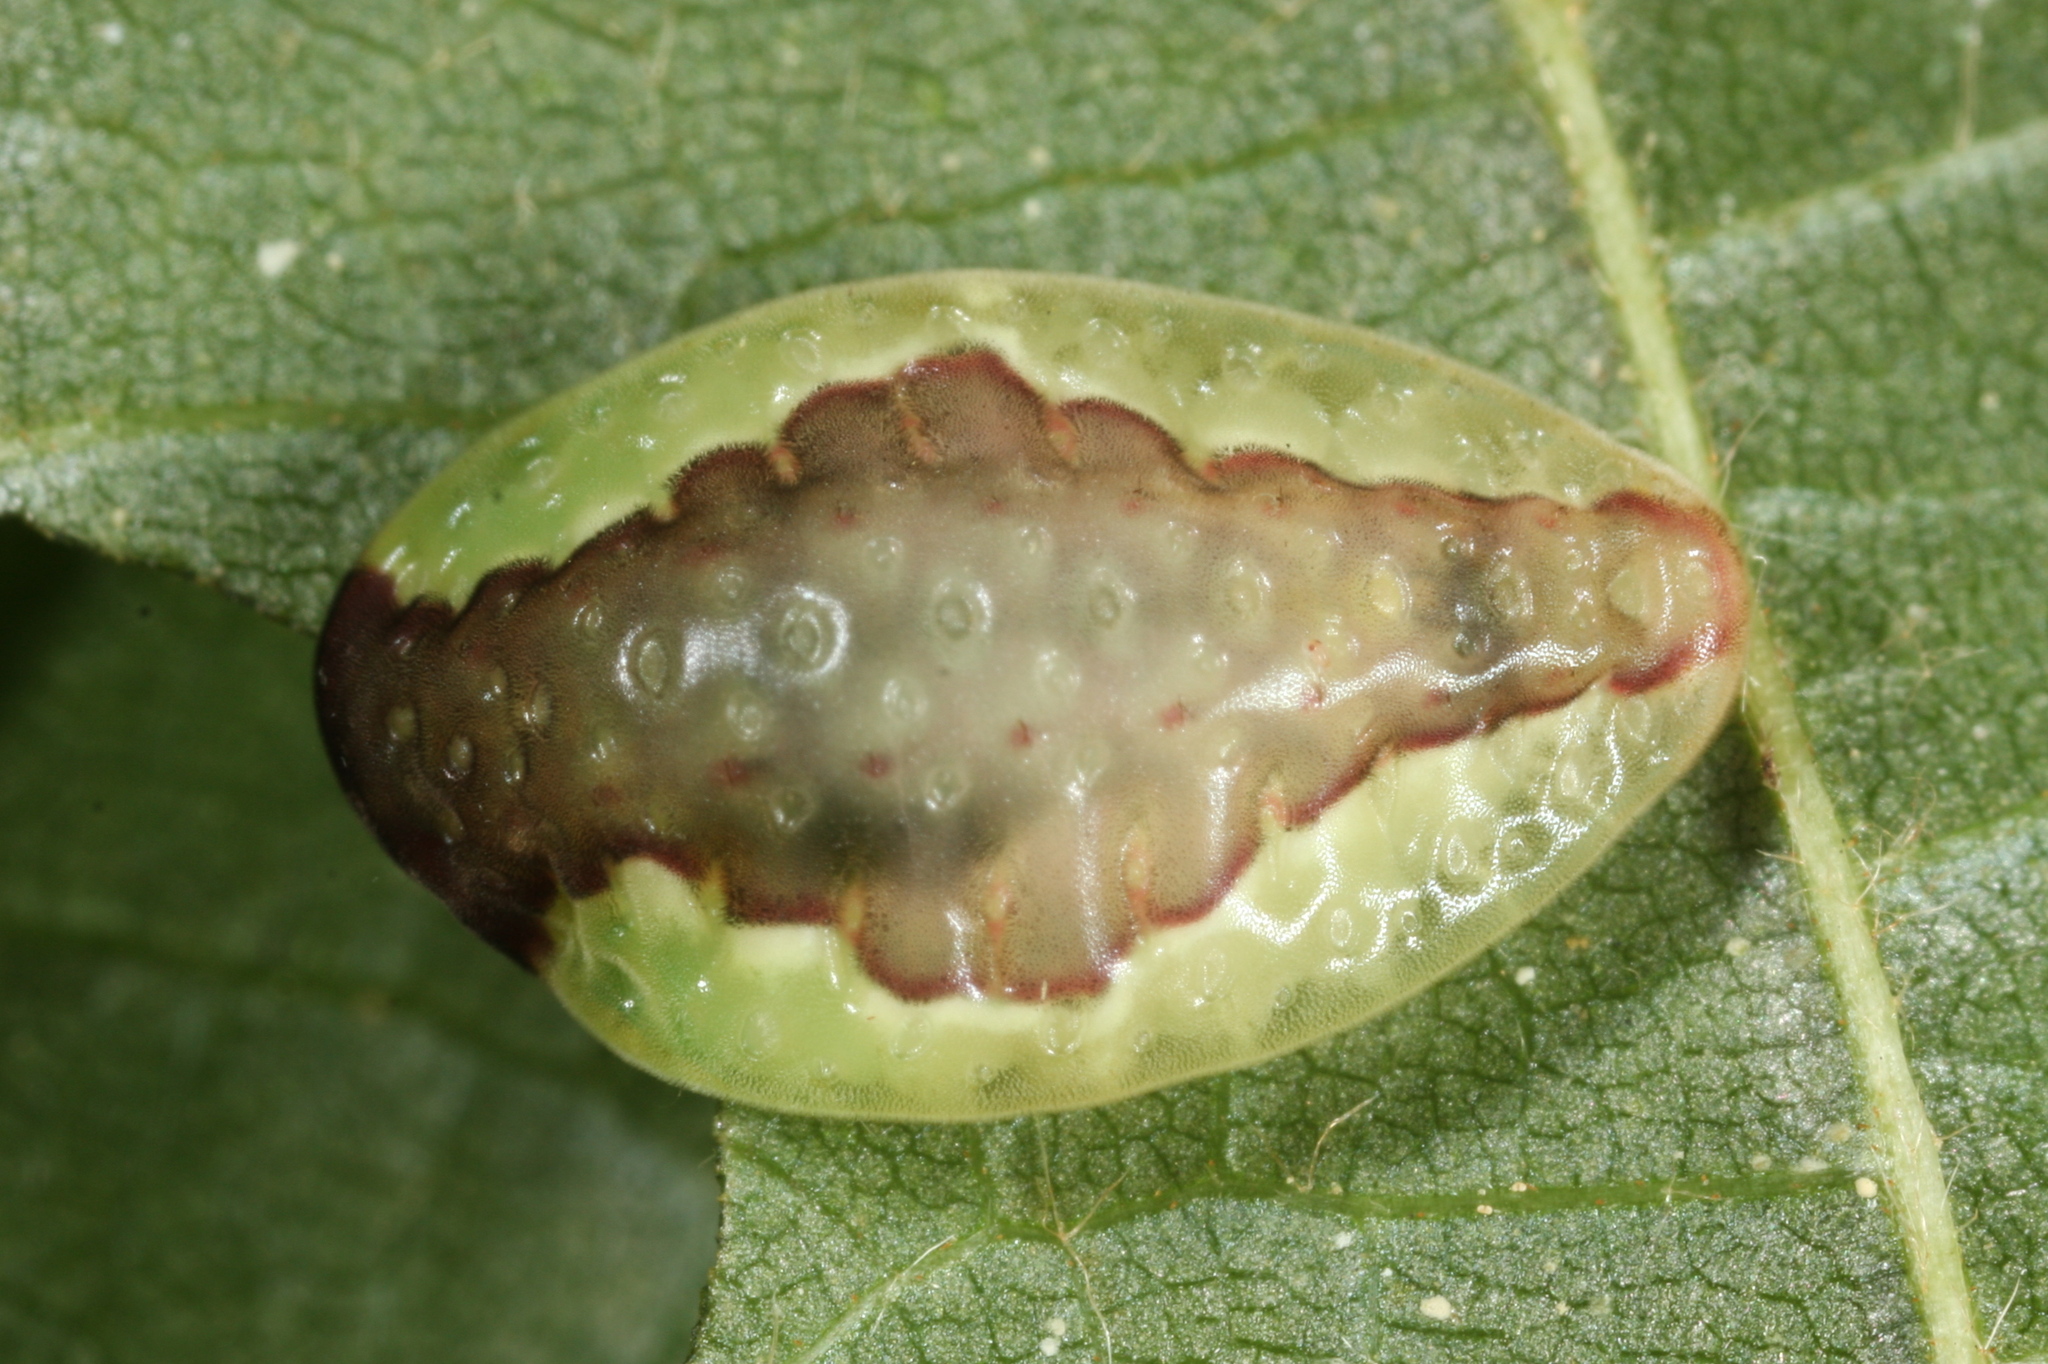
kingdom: Animalia
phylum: Arthropoda
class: Insecta
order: Lepidoptera
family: Limacodidae
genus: Heterogenea
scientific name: Heterogenea asella
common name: Triangle
